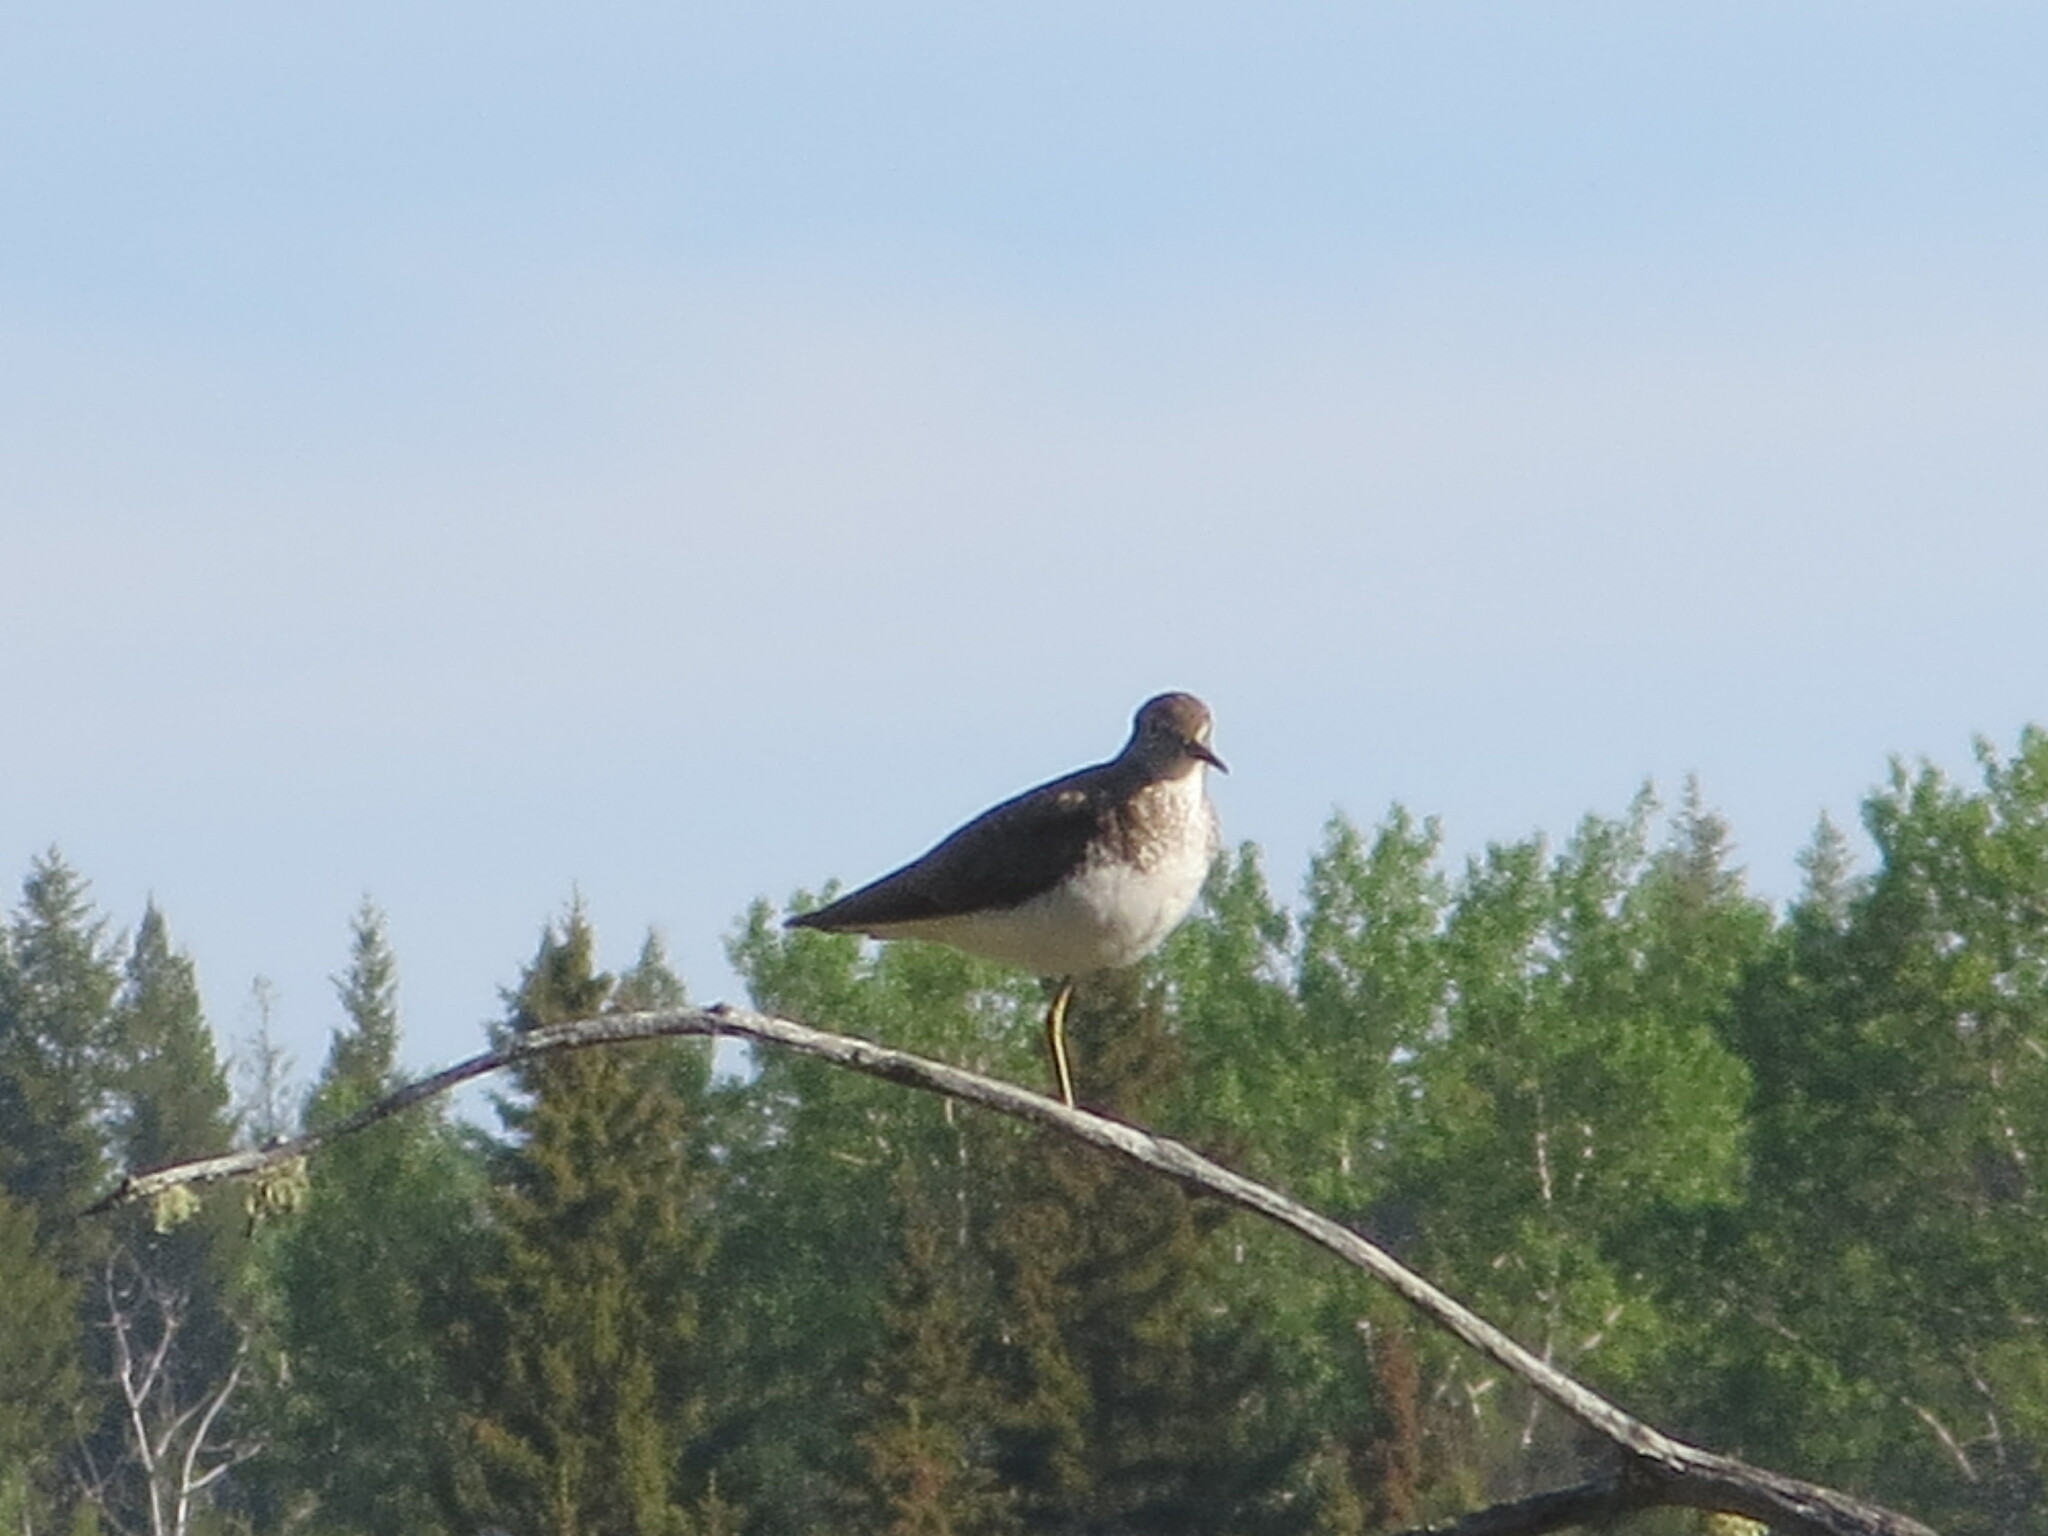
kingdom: Animalia
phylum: Chordata
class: Aves
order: Charadriiformes
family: Scolopacidae
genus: Tringa
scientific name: Tringa solitaria
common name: Solitary sandpiper
